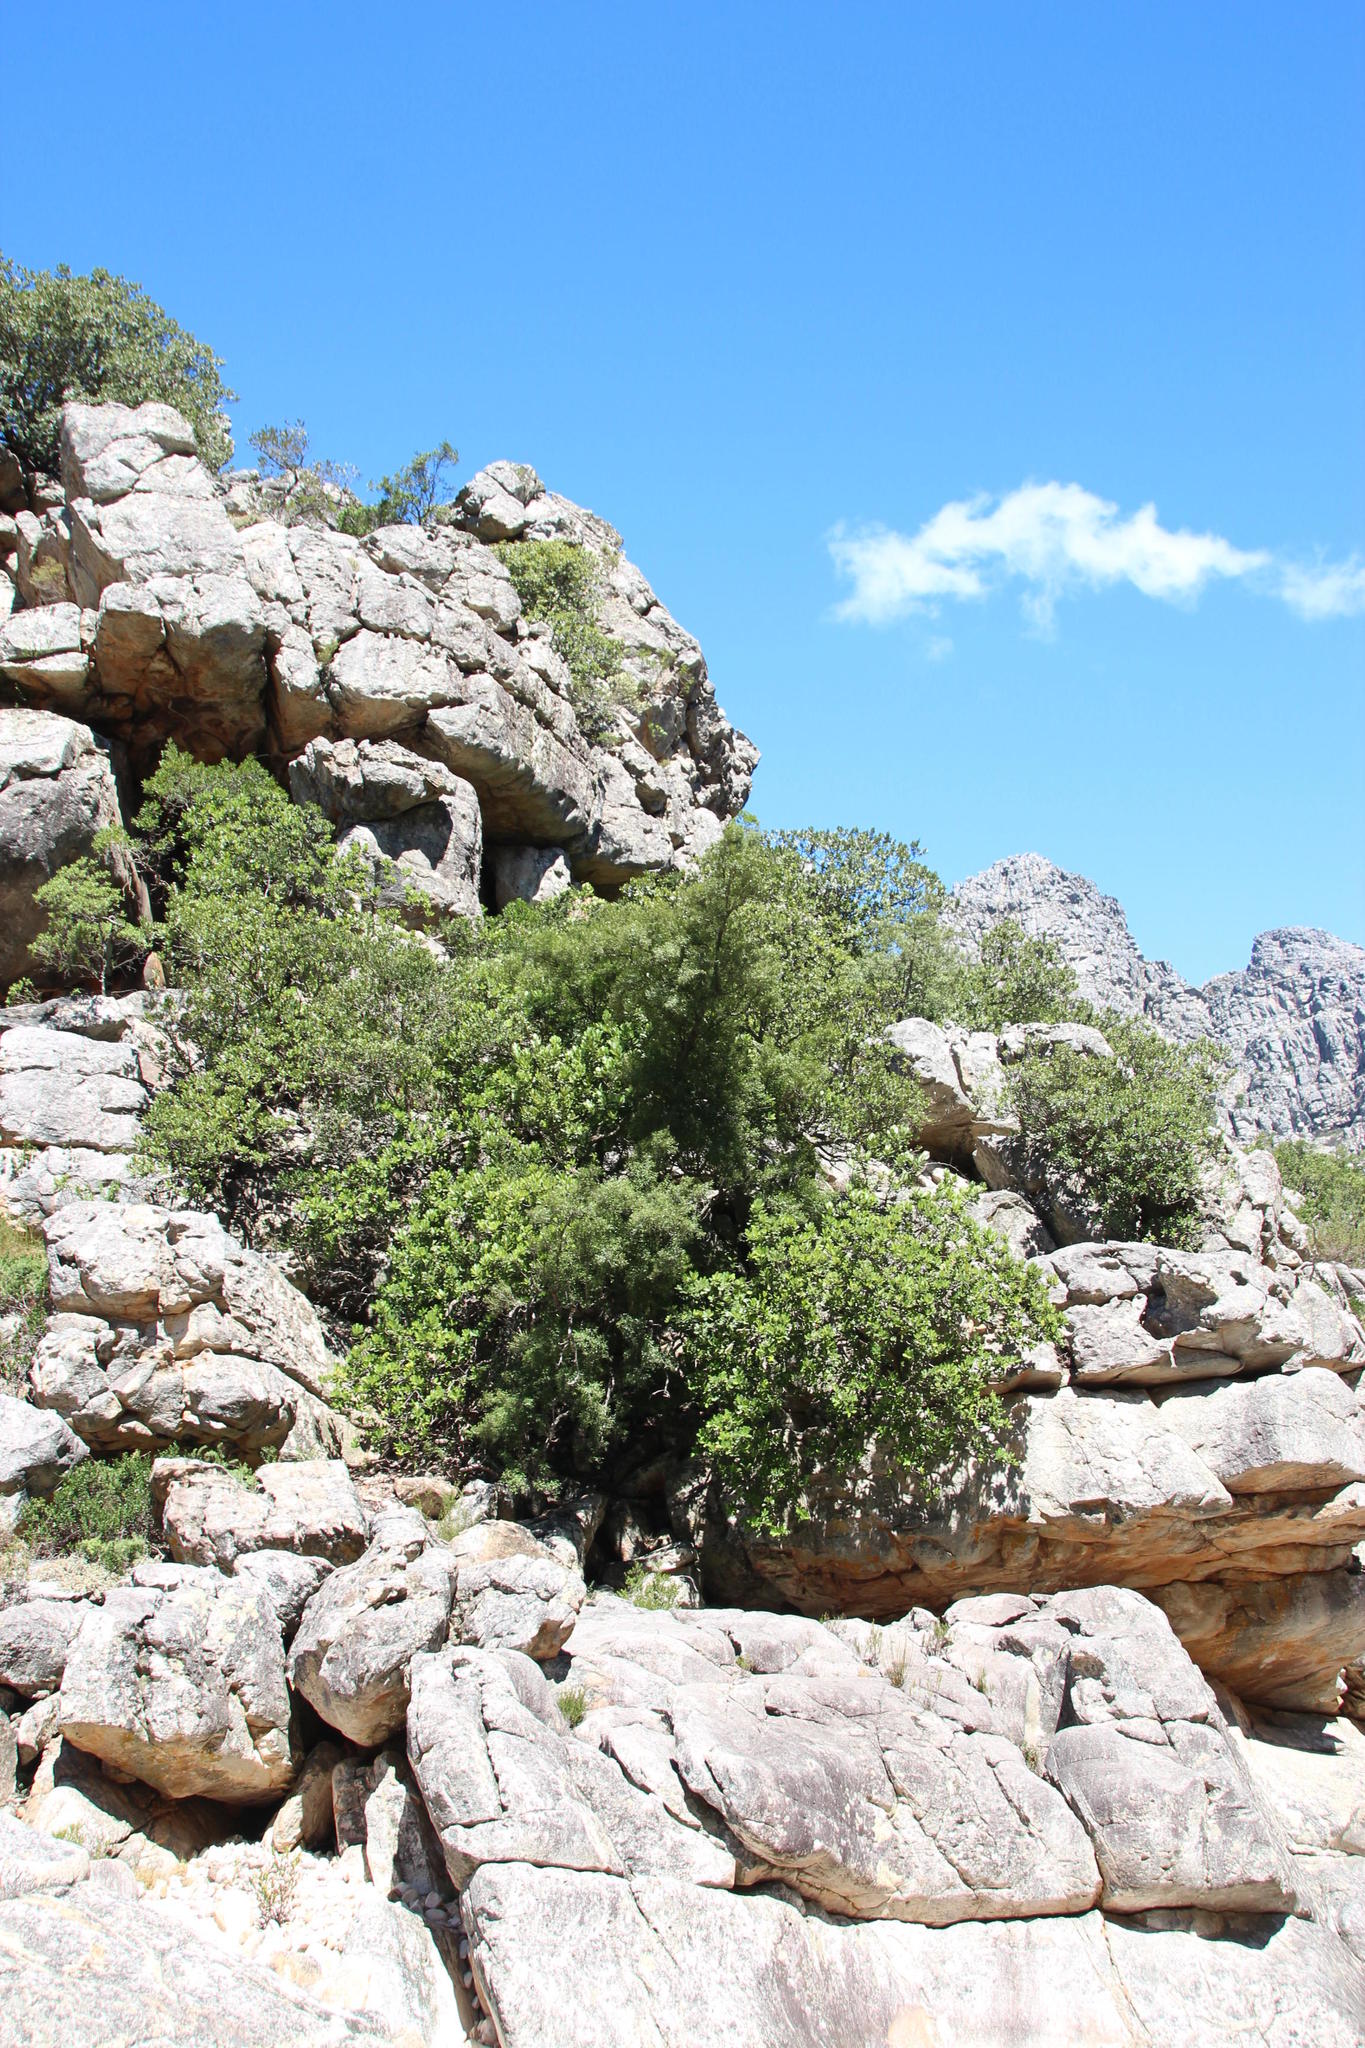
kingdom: Plantae
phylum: Tracheophyta
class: Magnoliopsida
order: Sapindales
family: Anacardiaceae
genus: Heeria
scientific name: Heeria argentea
